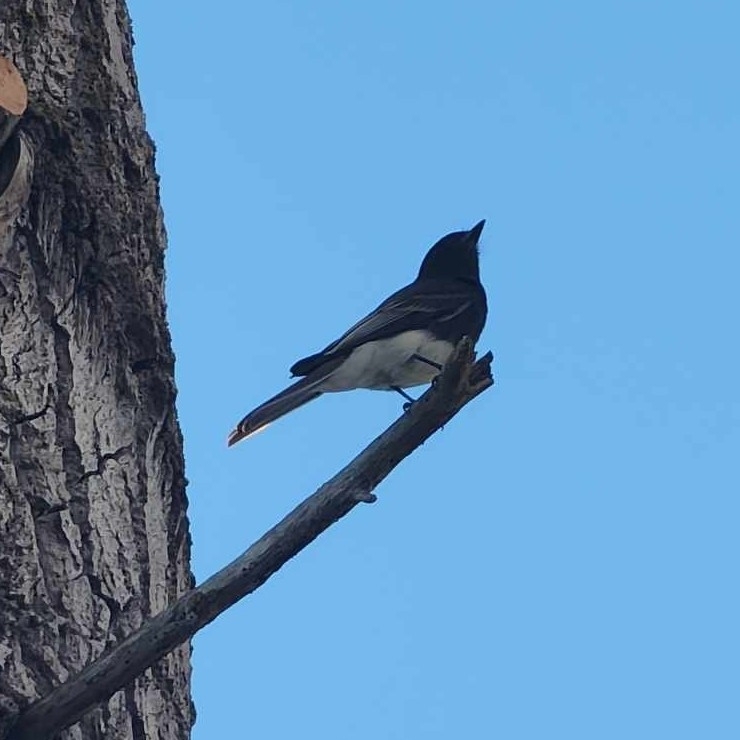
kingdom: Animalia
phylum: Chordata
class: Aves
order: Passeriformes
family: Tyrannidae
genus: Sayornis
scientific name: Sayornis nigricans
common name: Black phoebe
